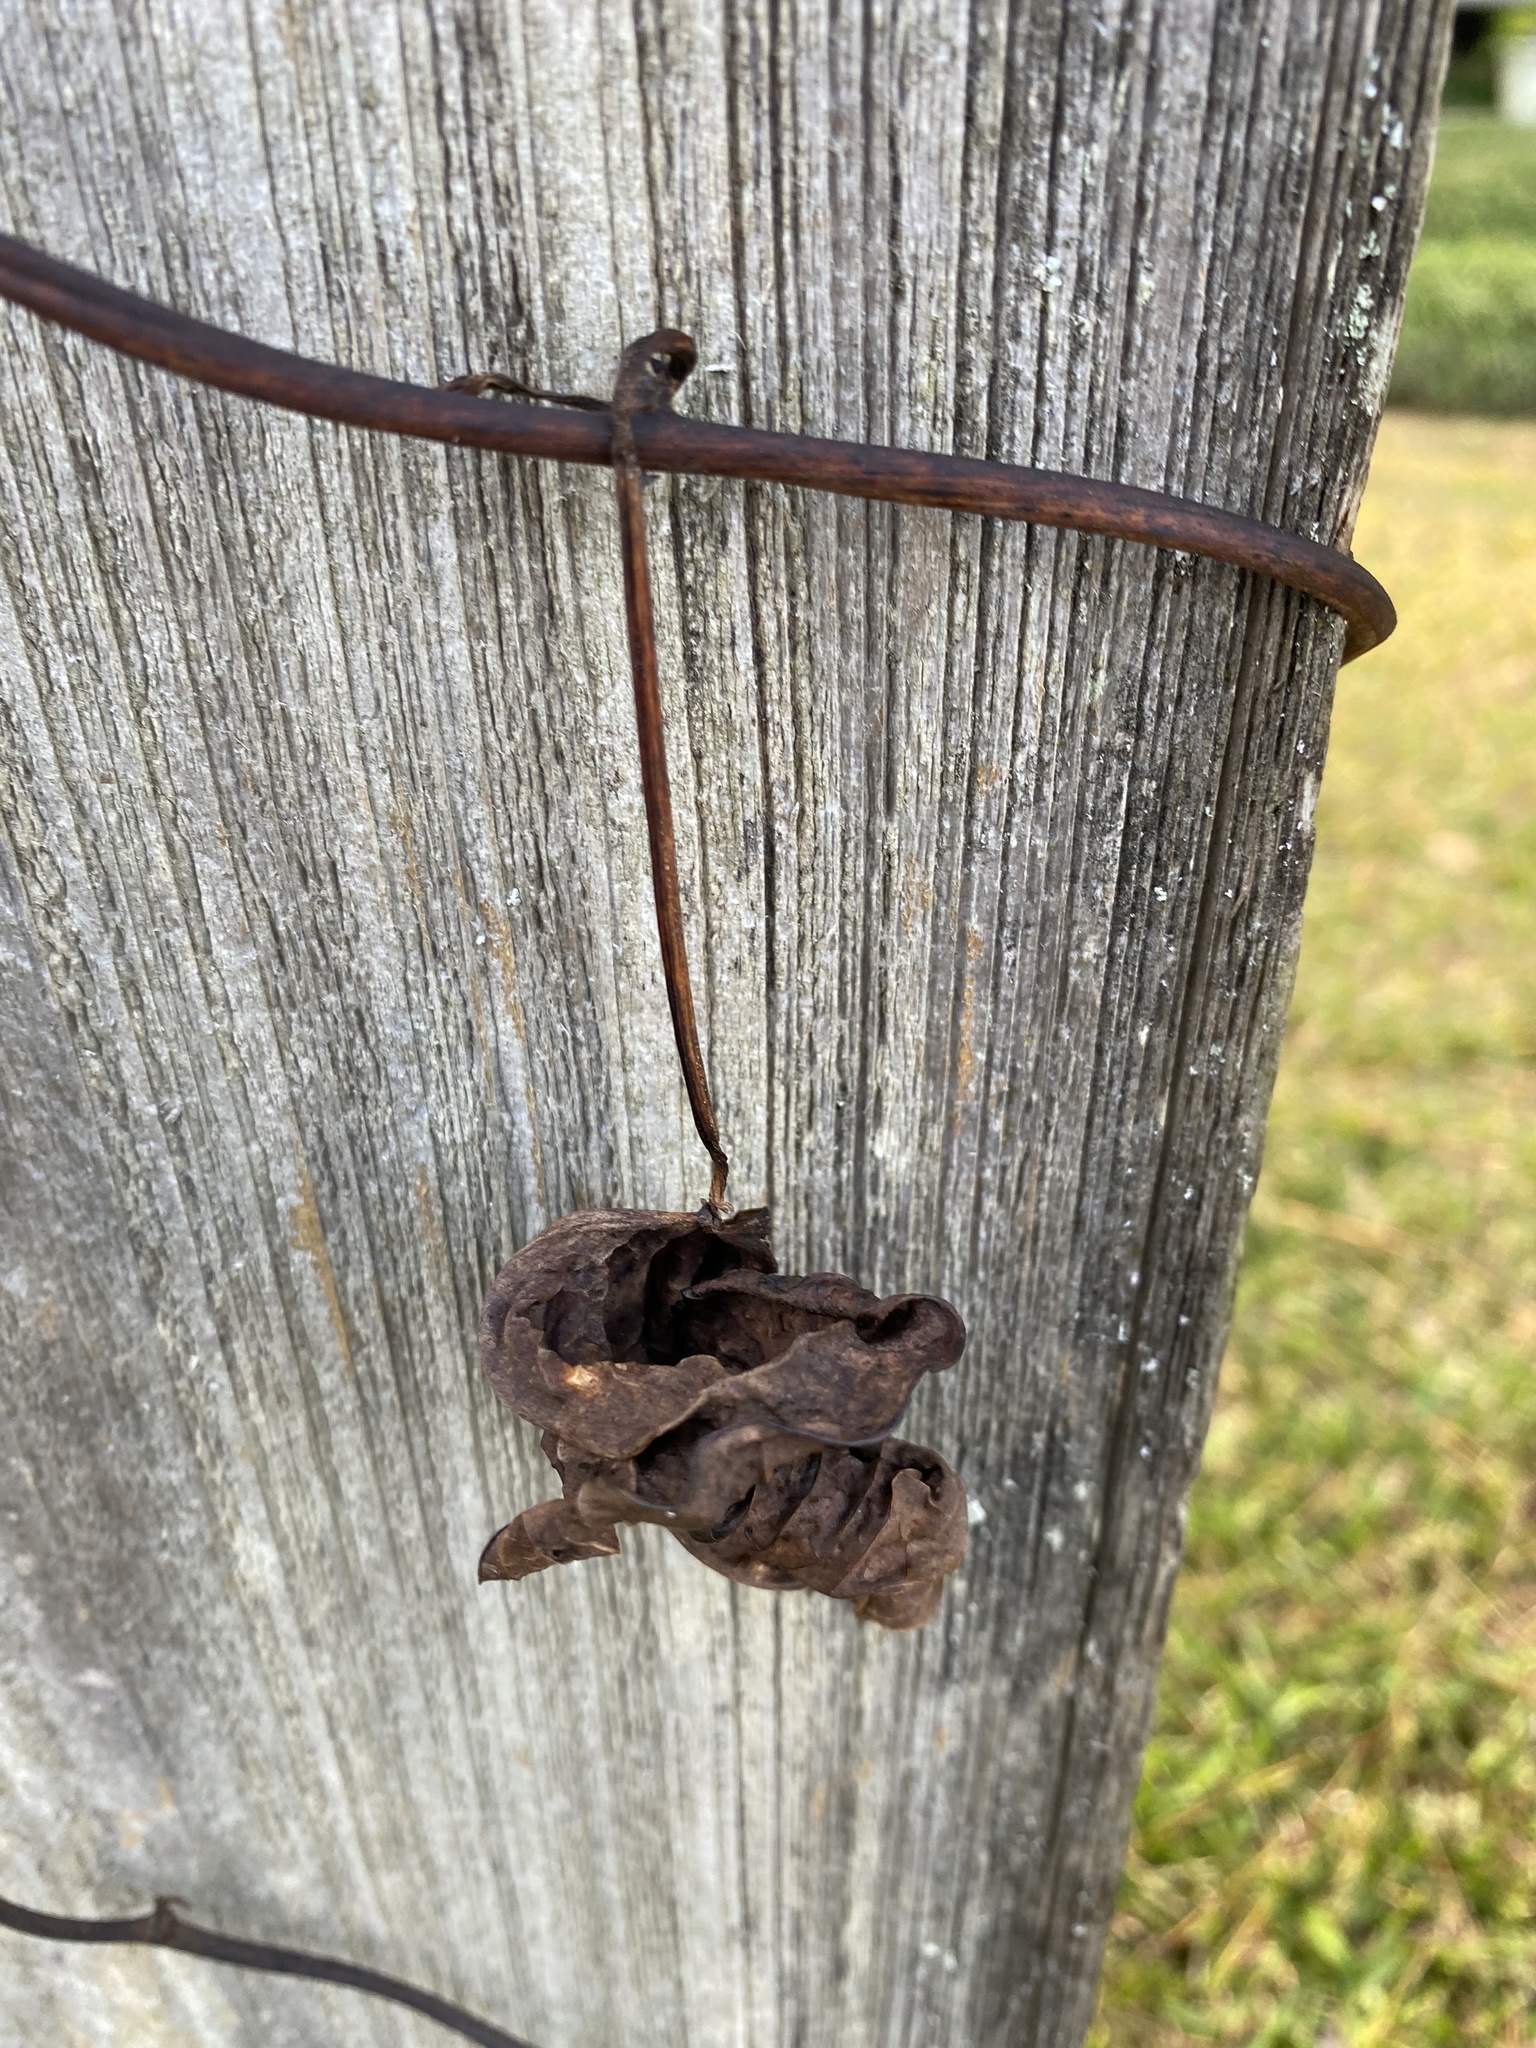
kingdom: Plantae
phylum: Tracheophyta
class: Liliopsida
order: Dioscoreales
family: Dioscoreaceae
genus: Dioscorea
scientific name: Dioscorea bulbifera
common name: Air yam
